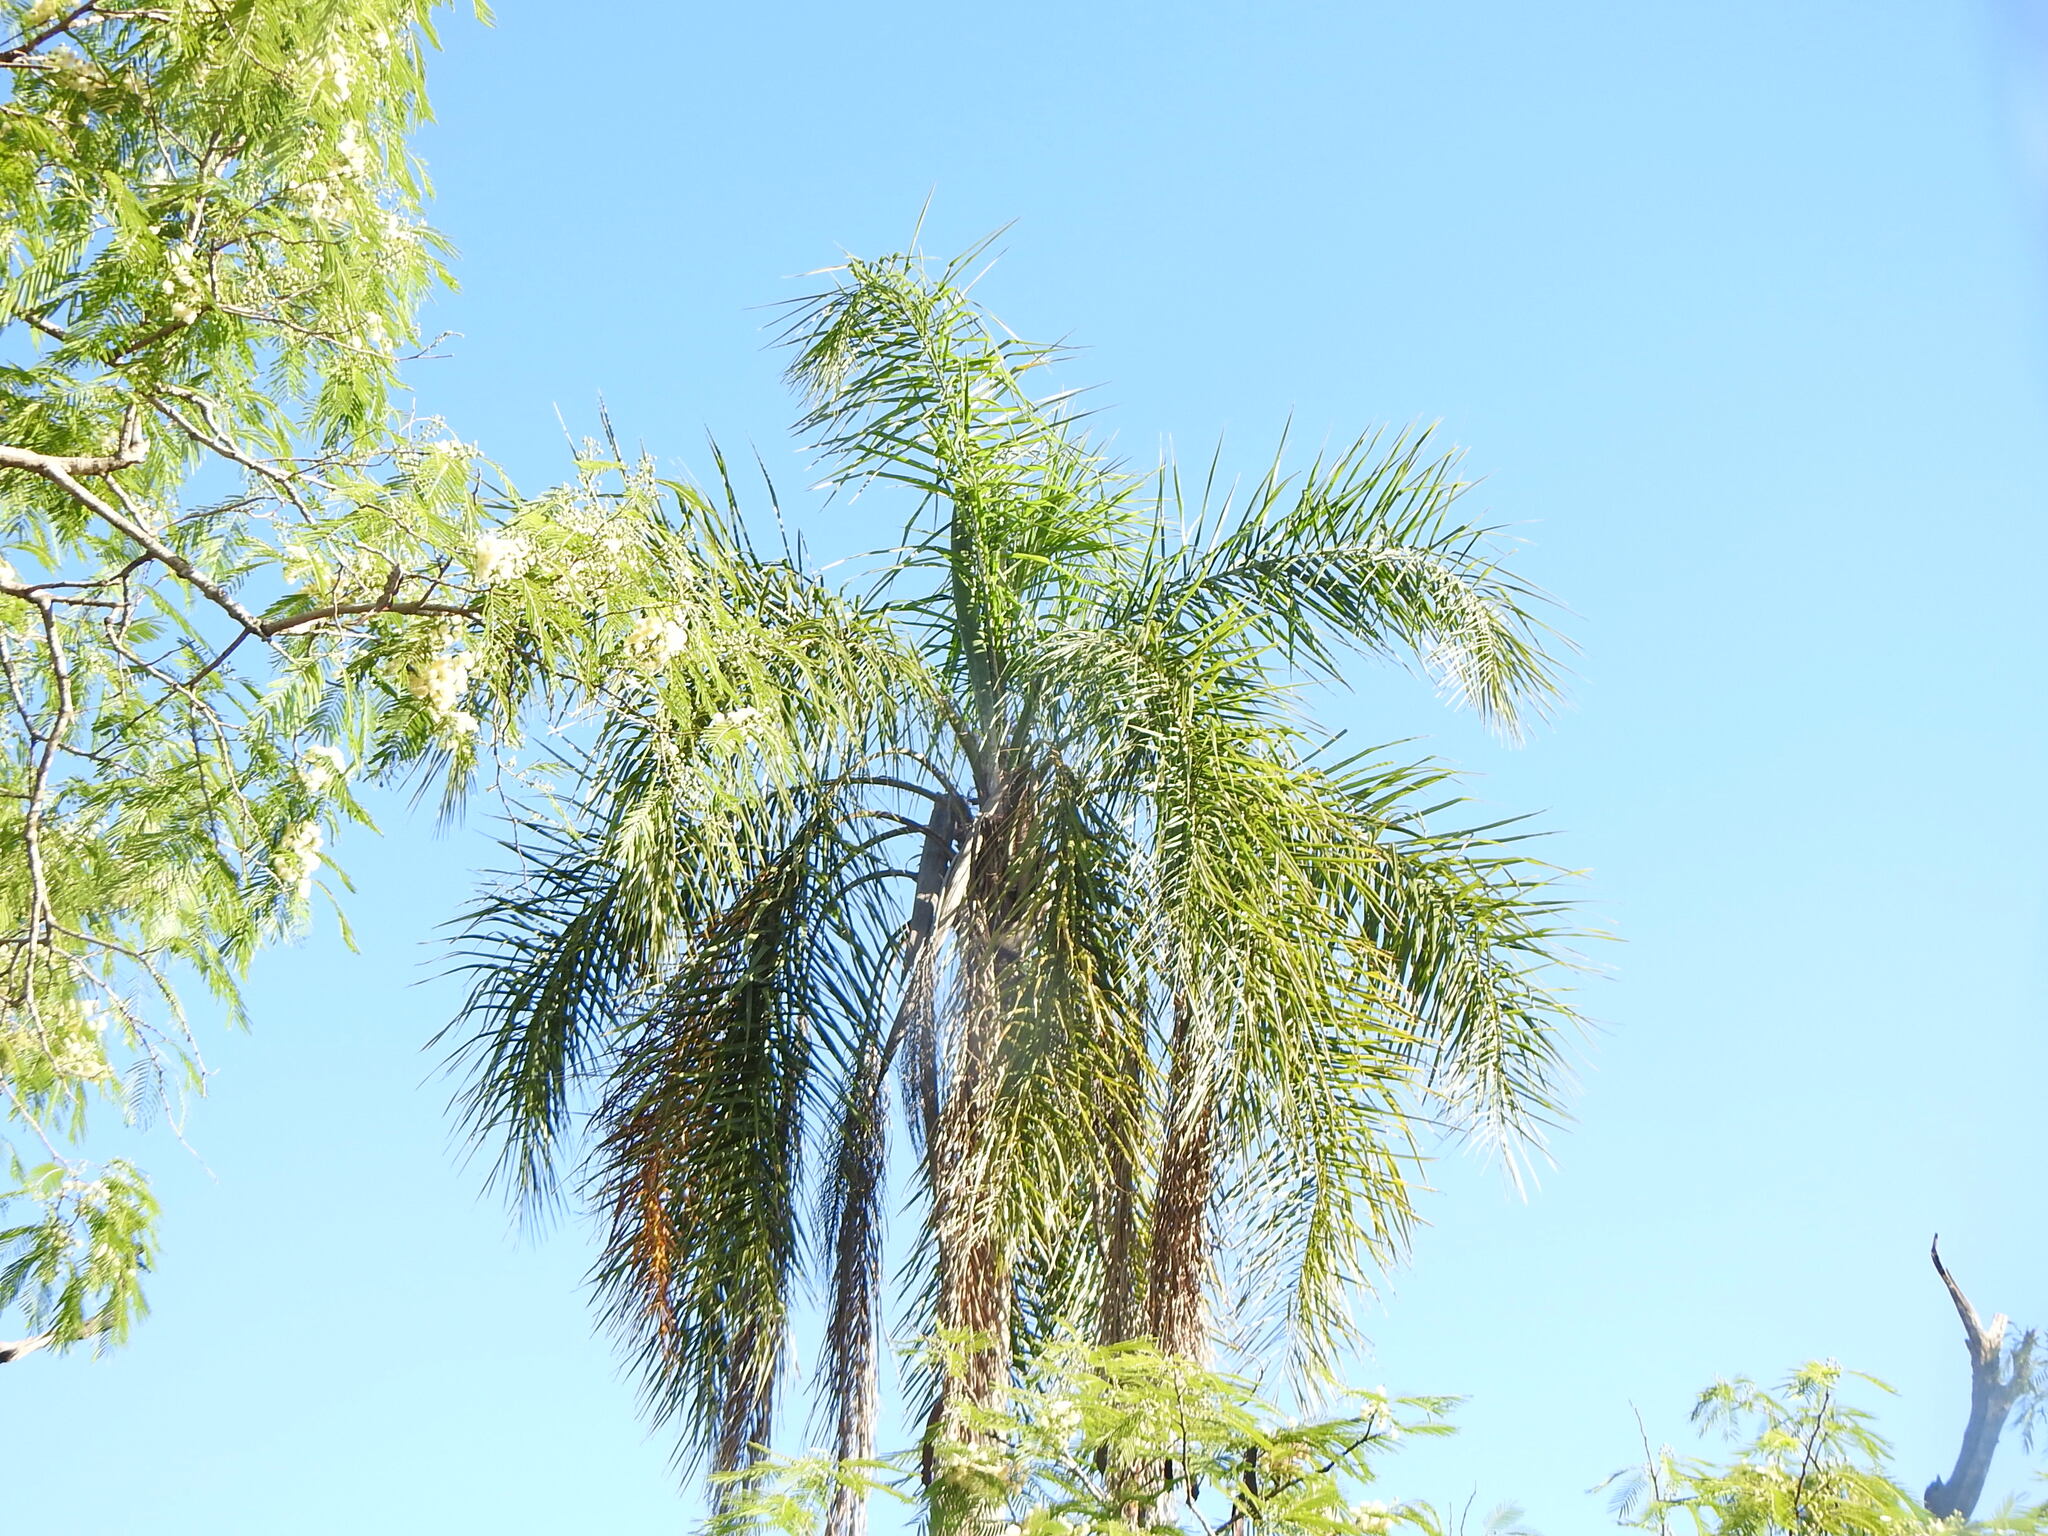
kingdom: Plantae
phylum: Tracheophyta
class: Liliopsida
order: Arecales
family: Arecaceae
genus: Syagrus
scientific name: Syagrus romanzoffiana
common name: Queen palm
